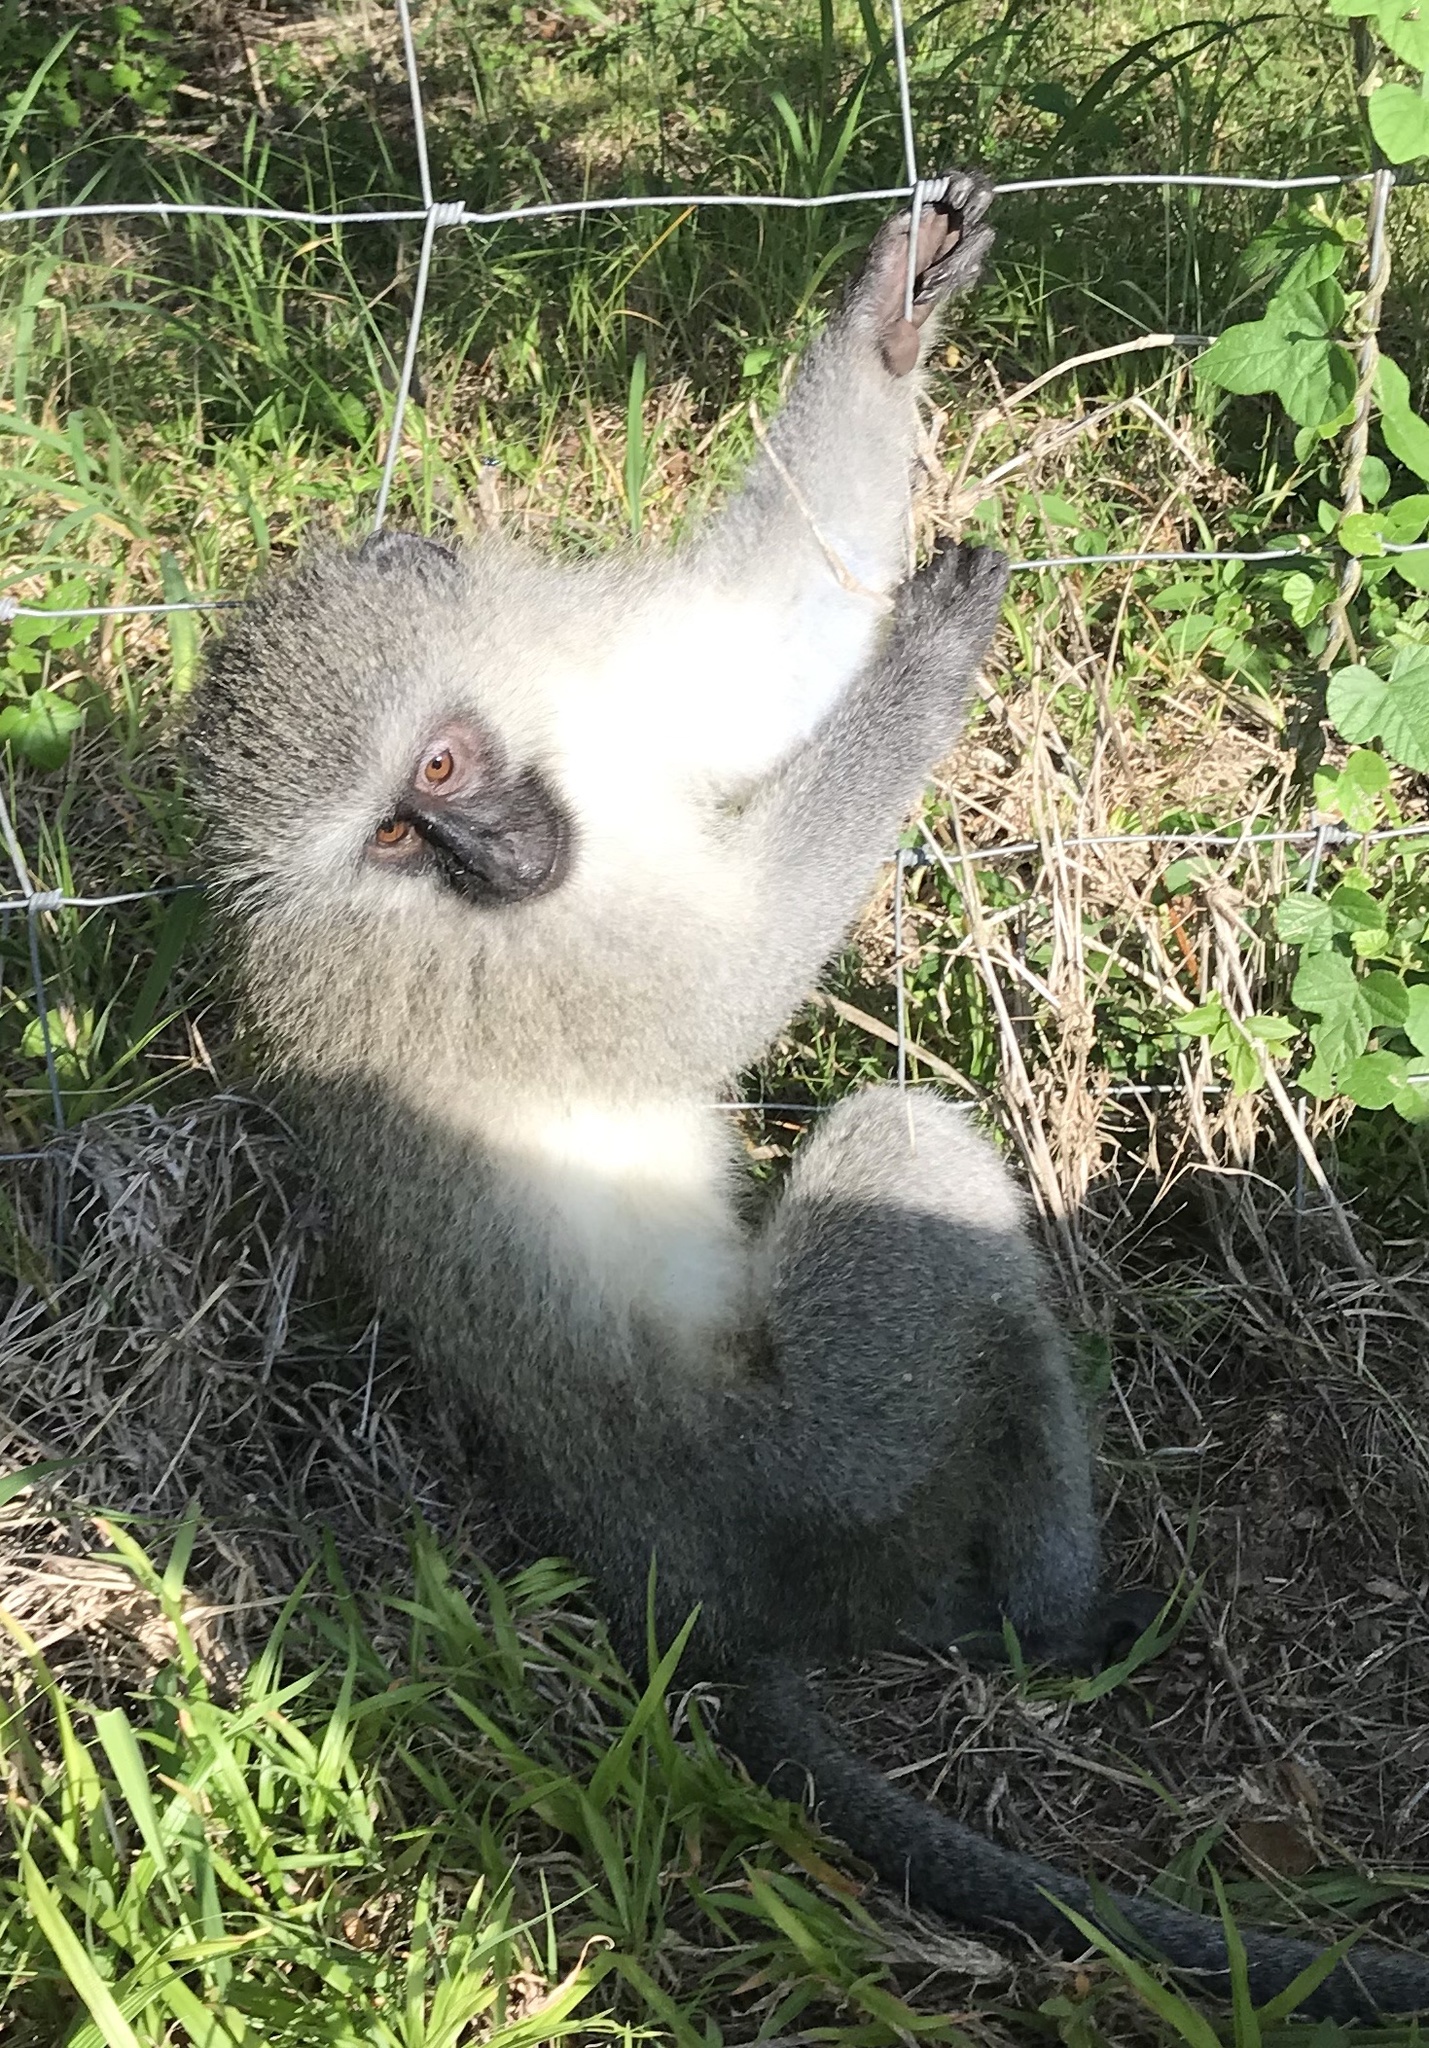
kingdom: Animalia
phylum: Chordata
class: Mammalia
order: Primates
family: Cercopithecidae
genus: Chlorocebus
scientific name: Chlorocebus pygerythrus
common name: Vervet monkey
